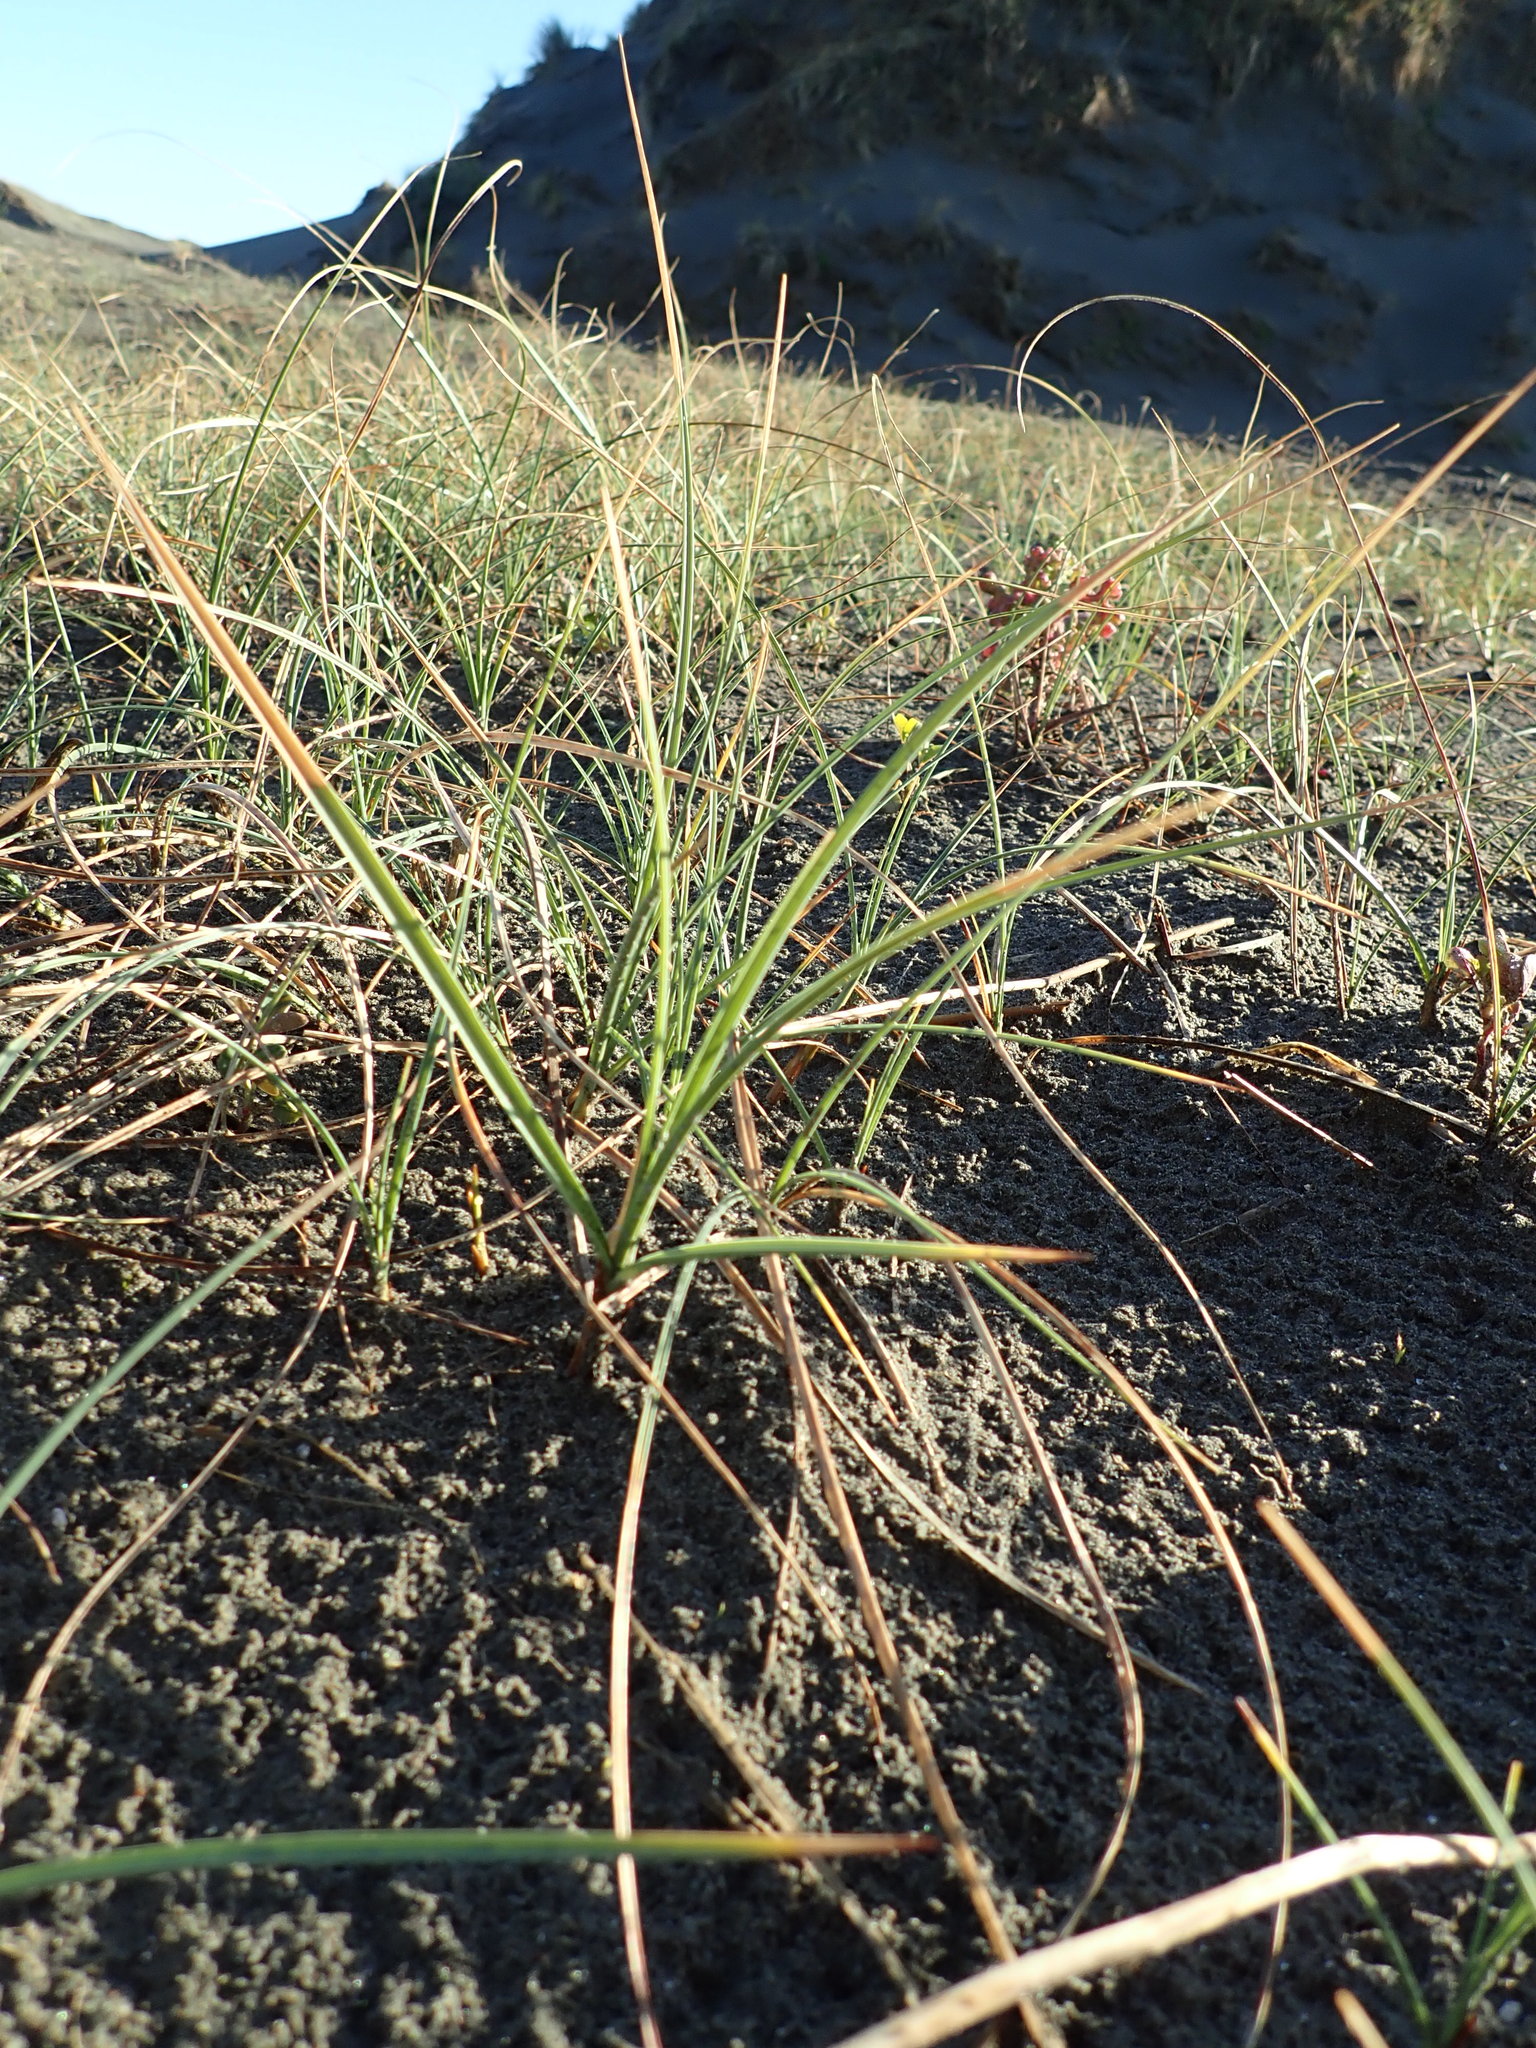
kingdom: Plantae
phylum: Tracheophyta
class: Liliopsida
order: Poales
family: Cyperaceae
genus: Carex
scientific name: Carex pumila
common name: Dwarf sedge
